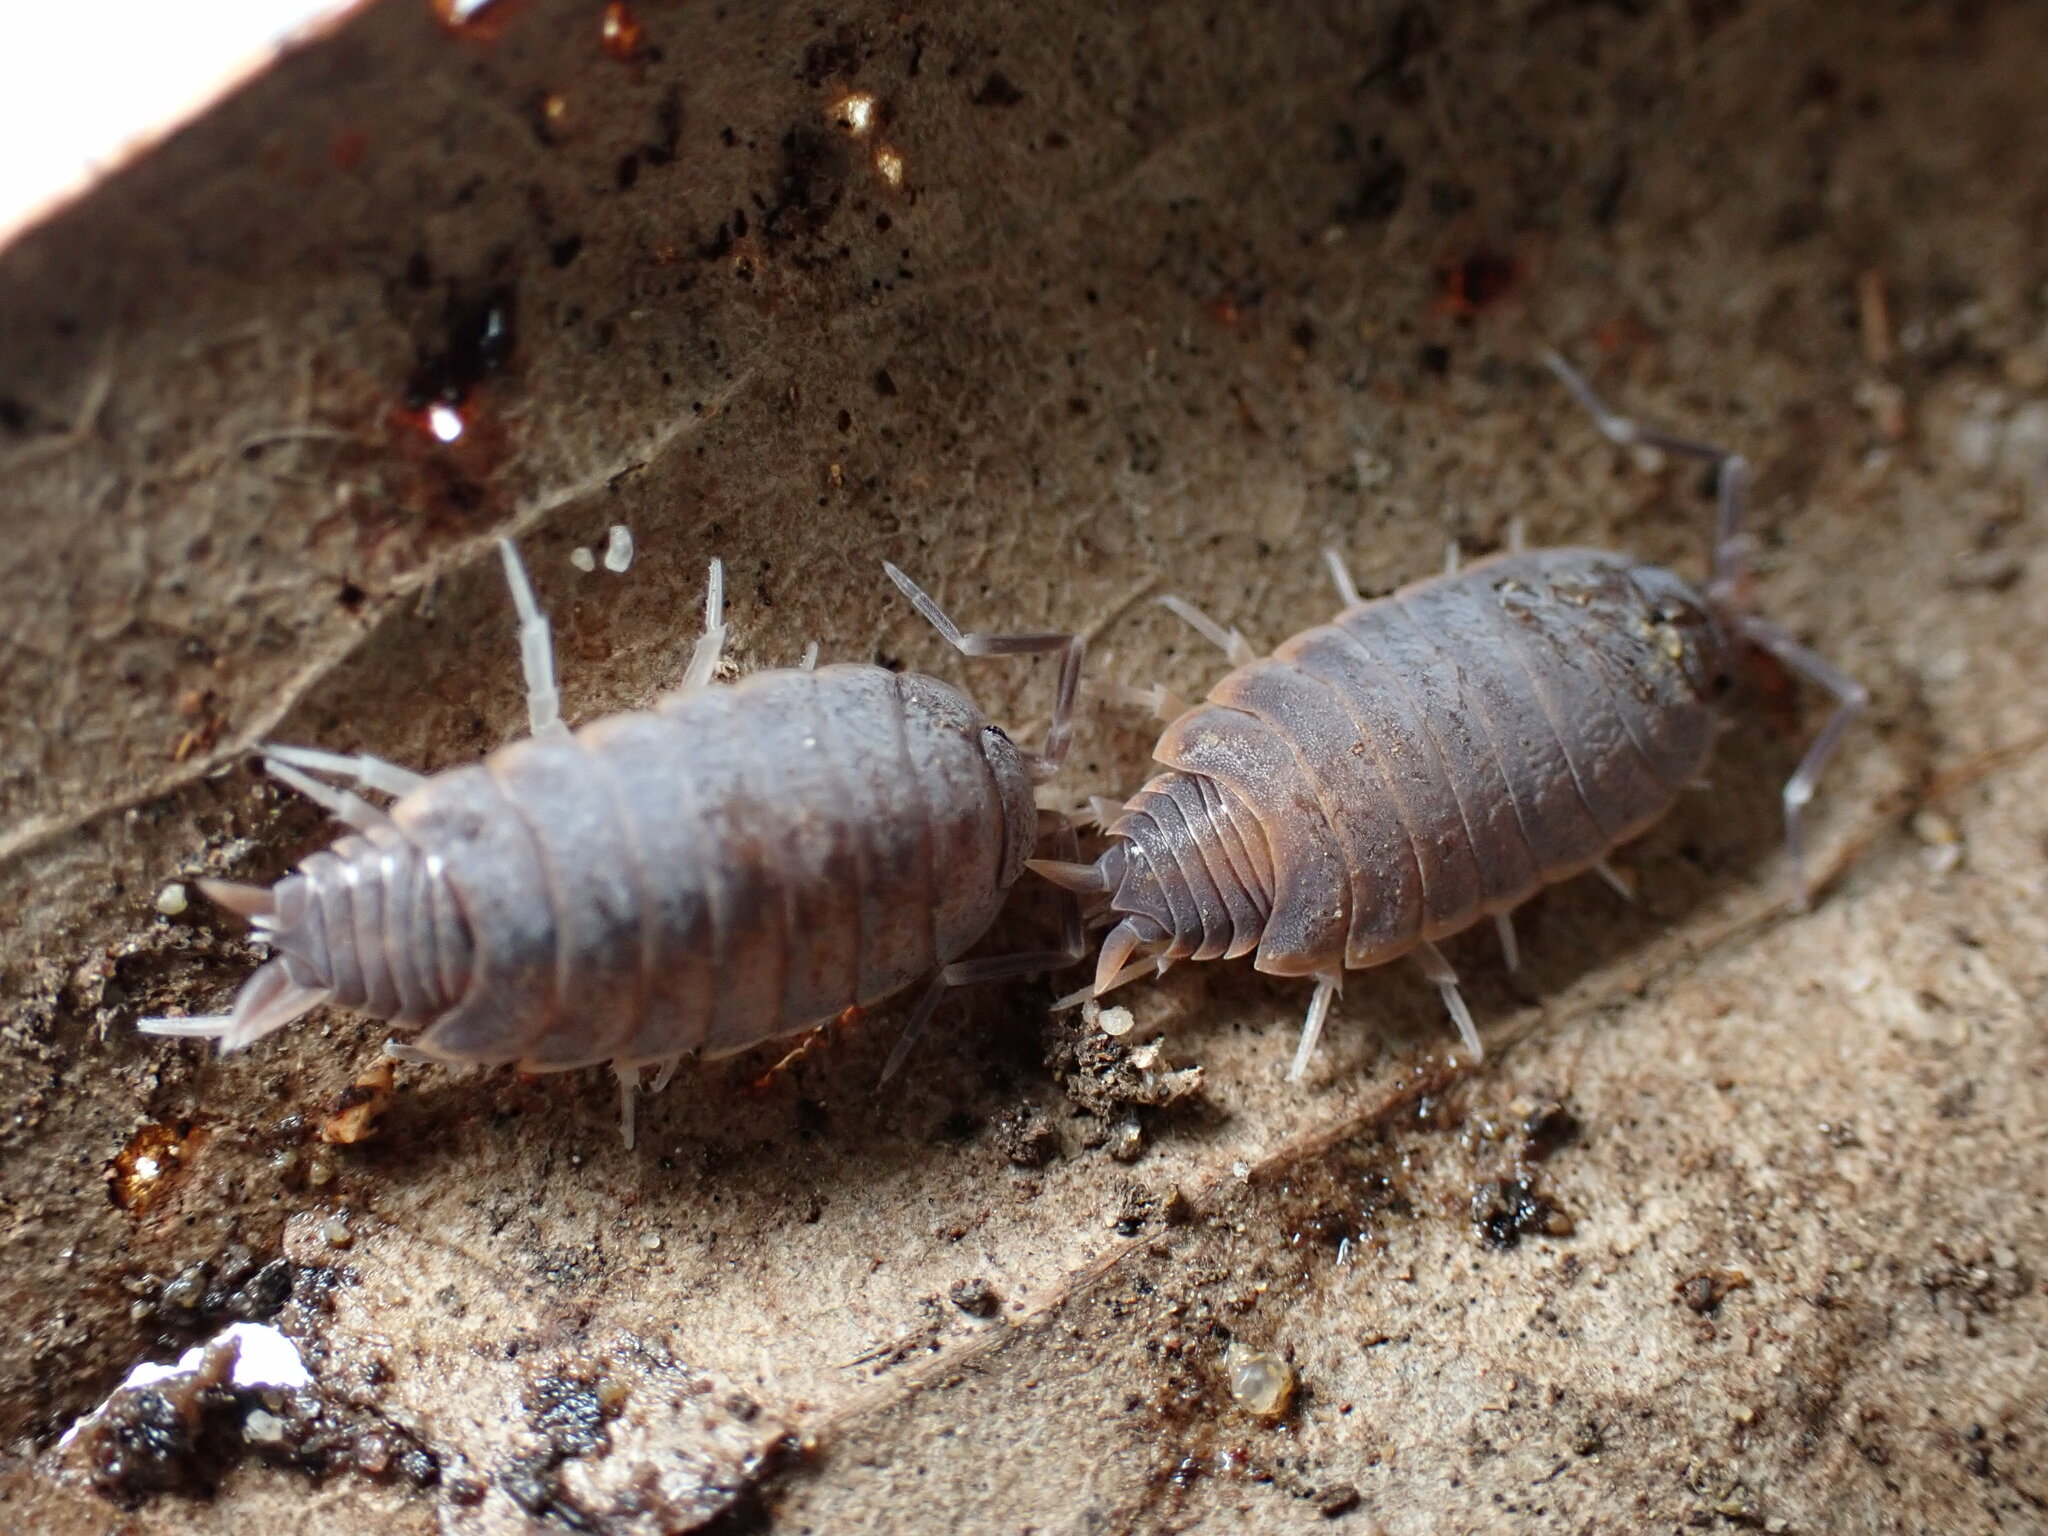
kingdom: Animalia
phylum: Arthropoda
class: Malacostraca
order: Isopoda
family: Porcellionidae
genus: Porcellionides
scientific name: Porcellionides pruinosus
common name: Plum woodlouse
